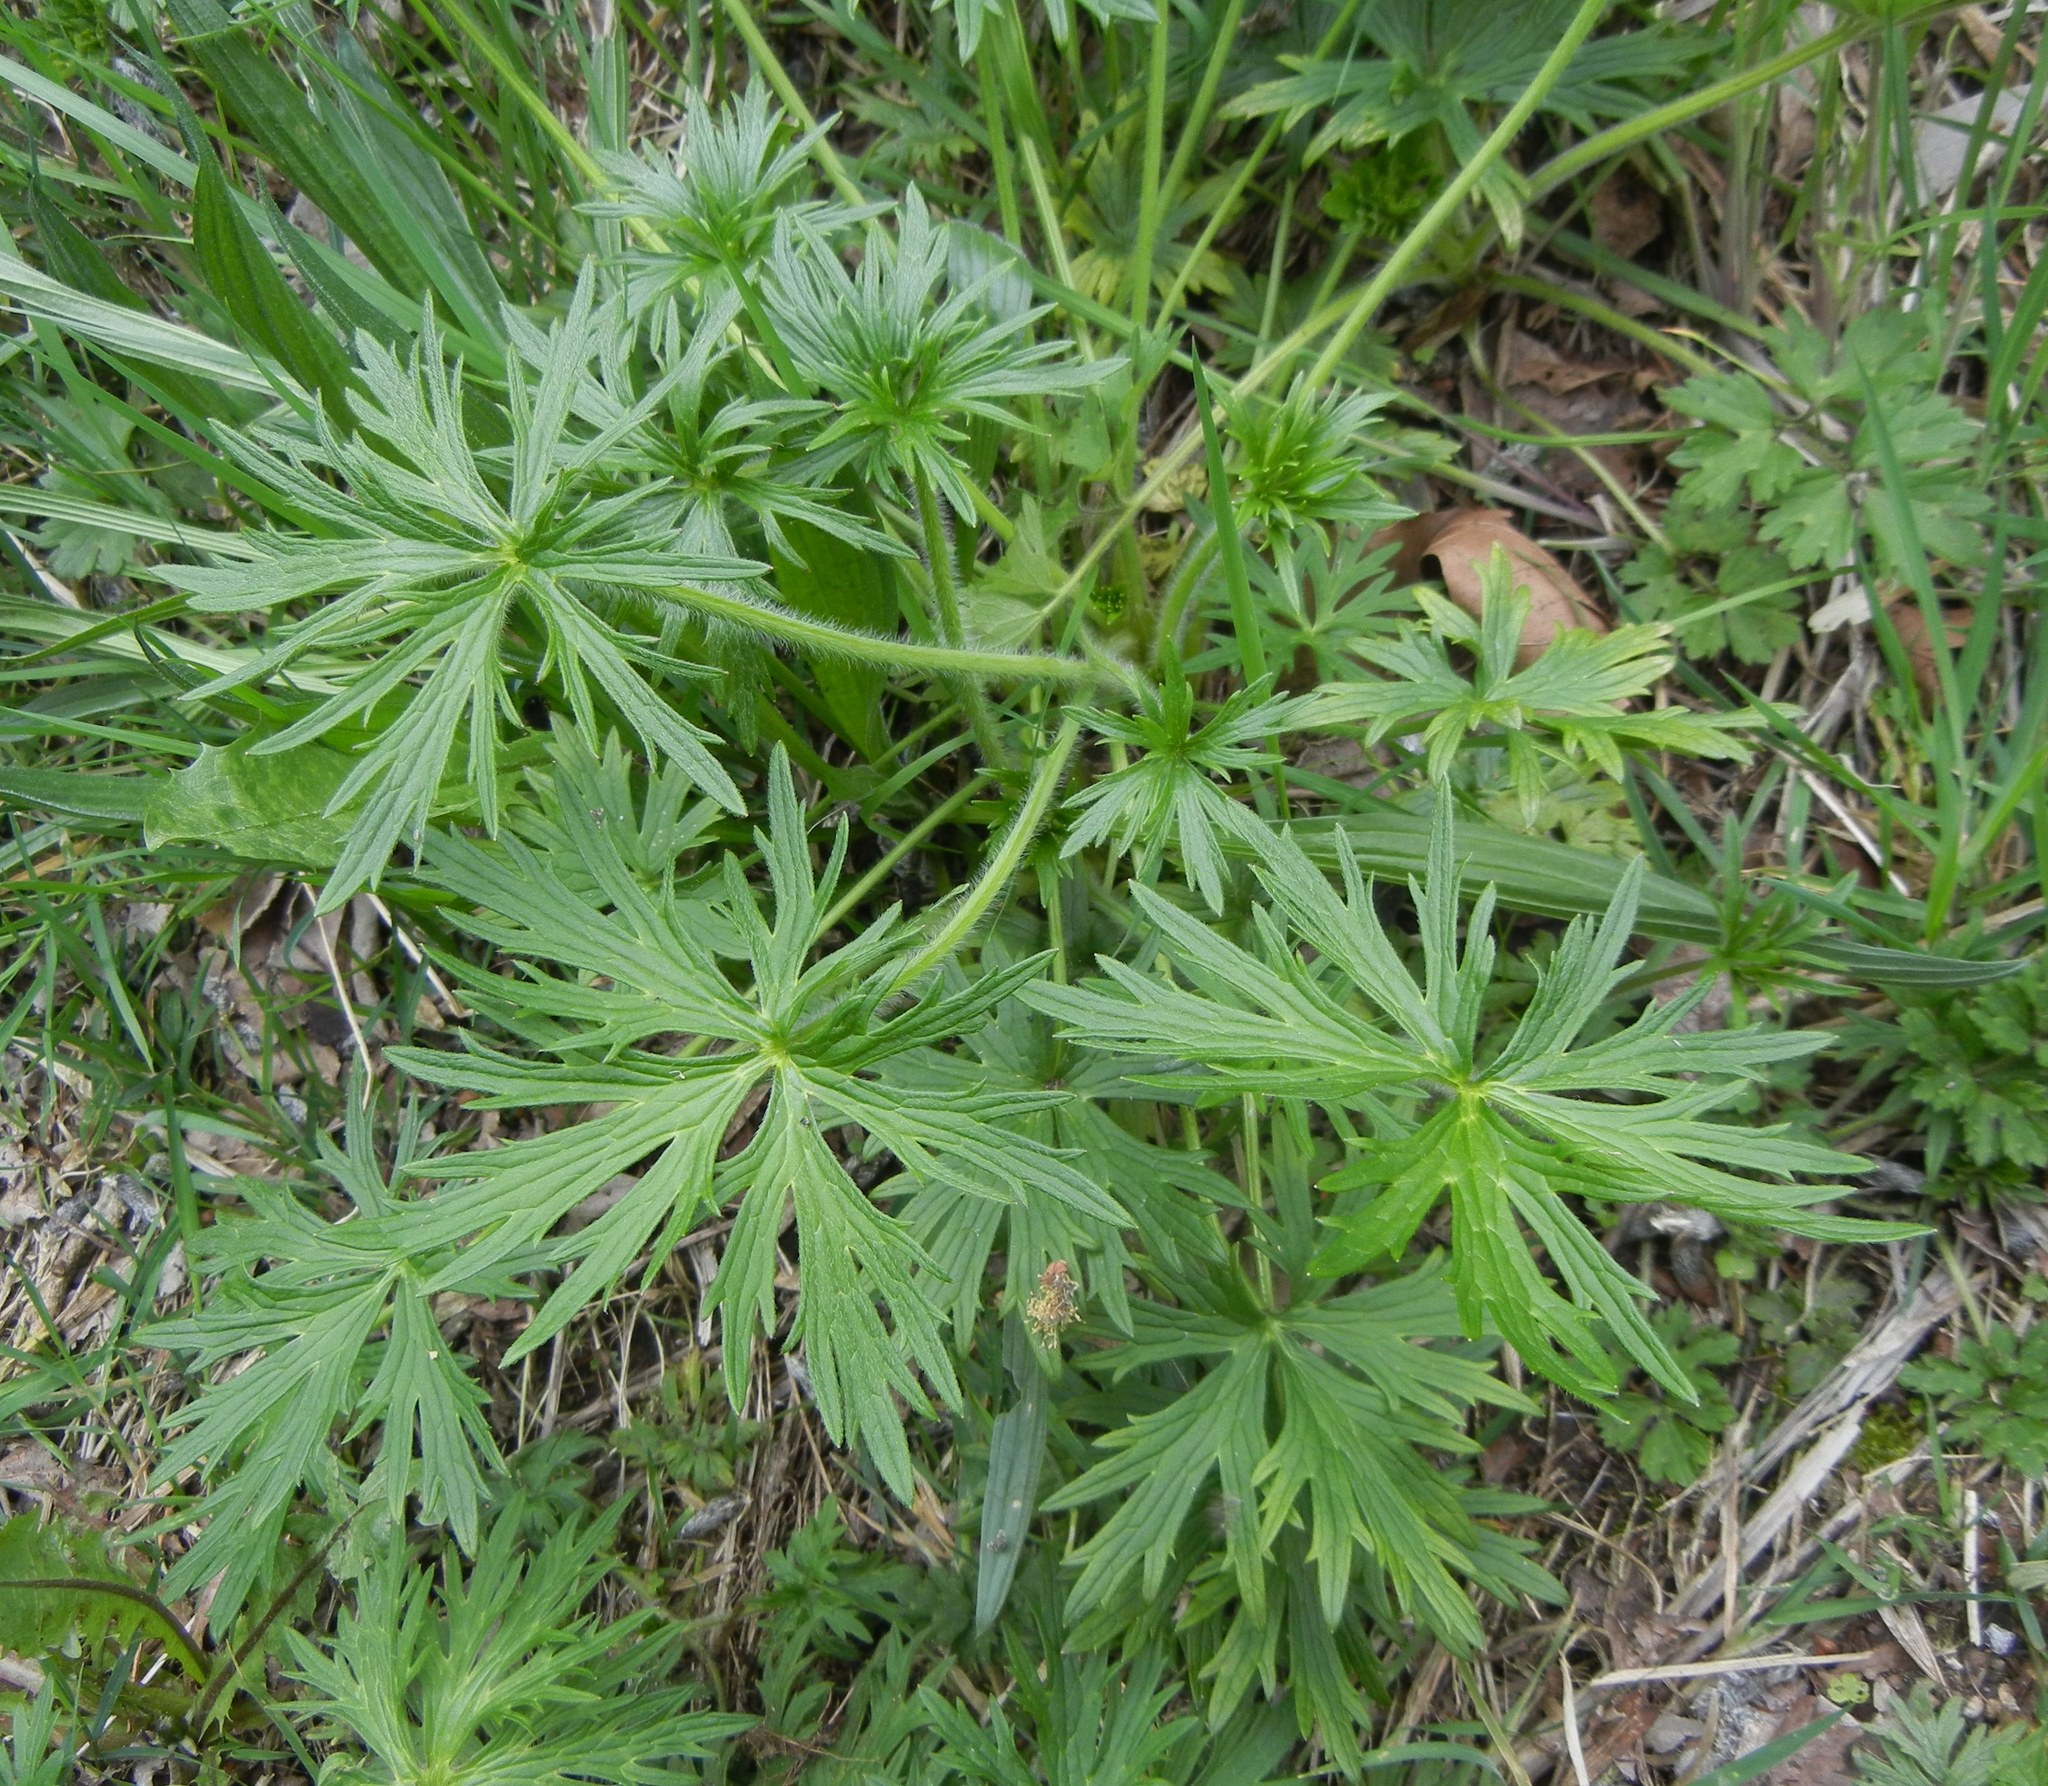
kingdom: Plantae
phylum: Tracheophyta
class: Magnoliopsida
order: Ranunculales
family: Ranunculaceae
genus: Ranunculus
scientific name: Ranunculus acris
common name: Meadow buttercup
